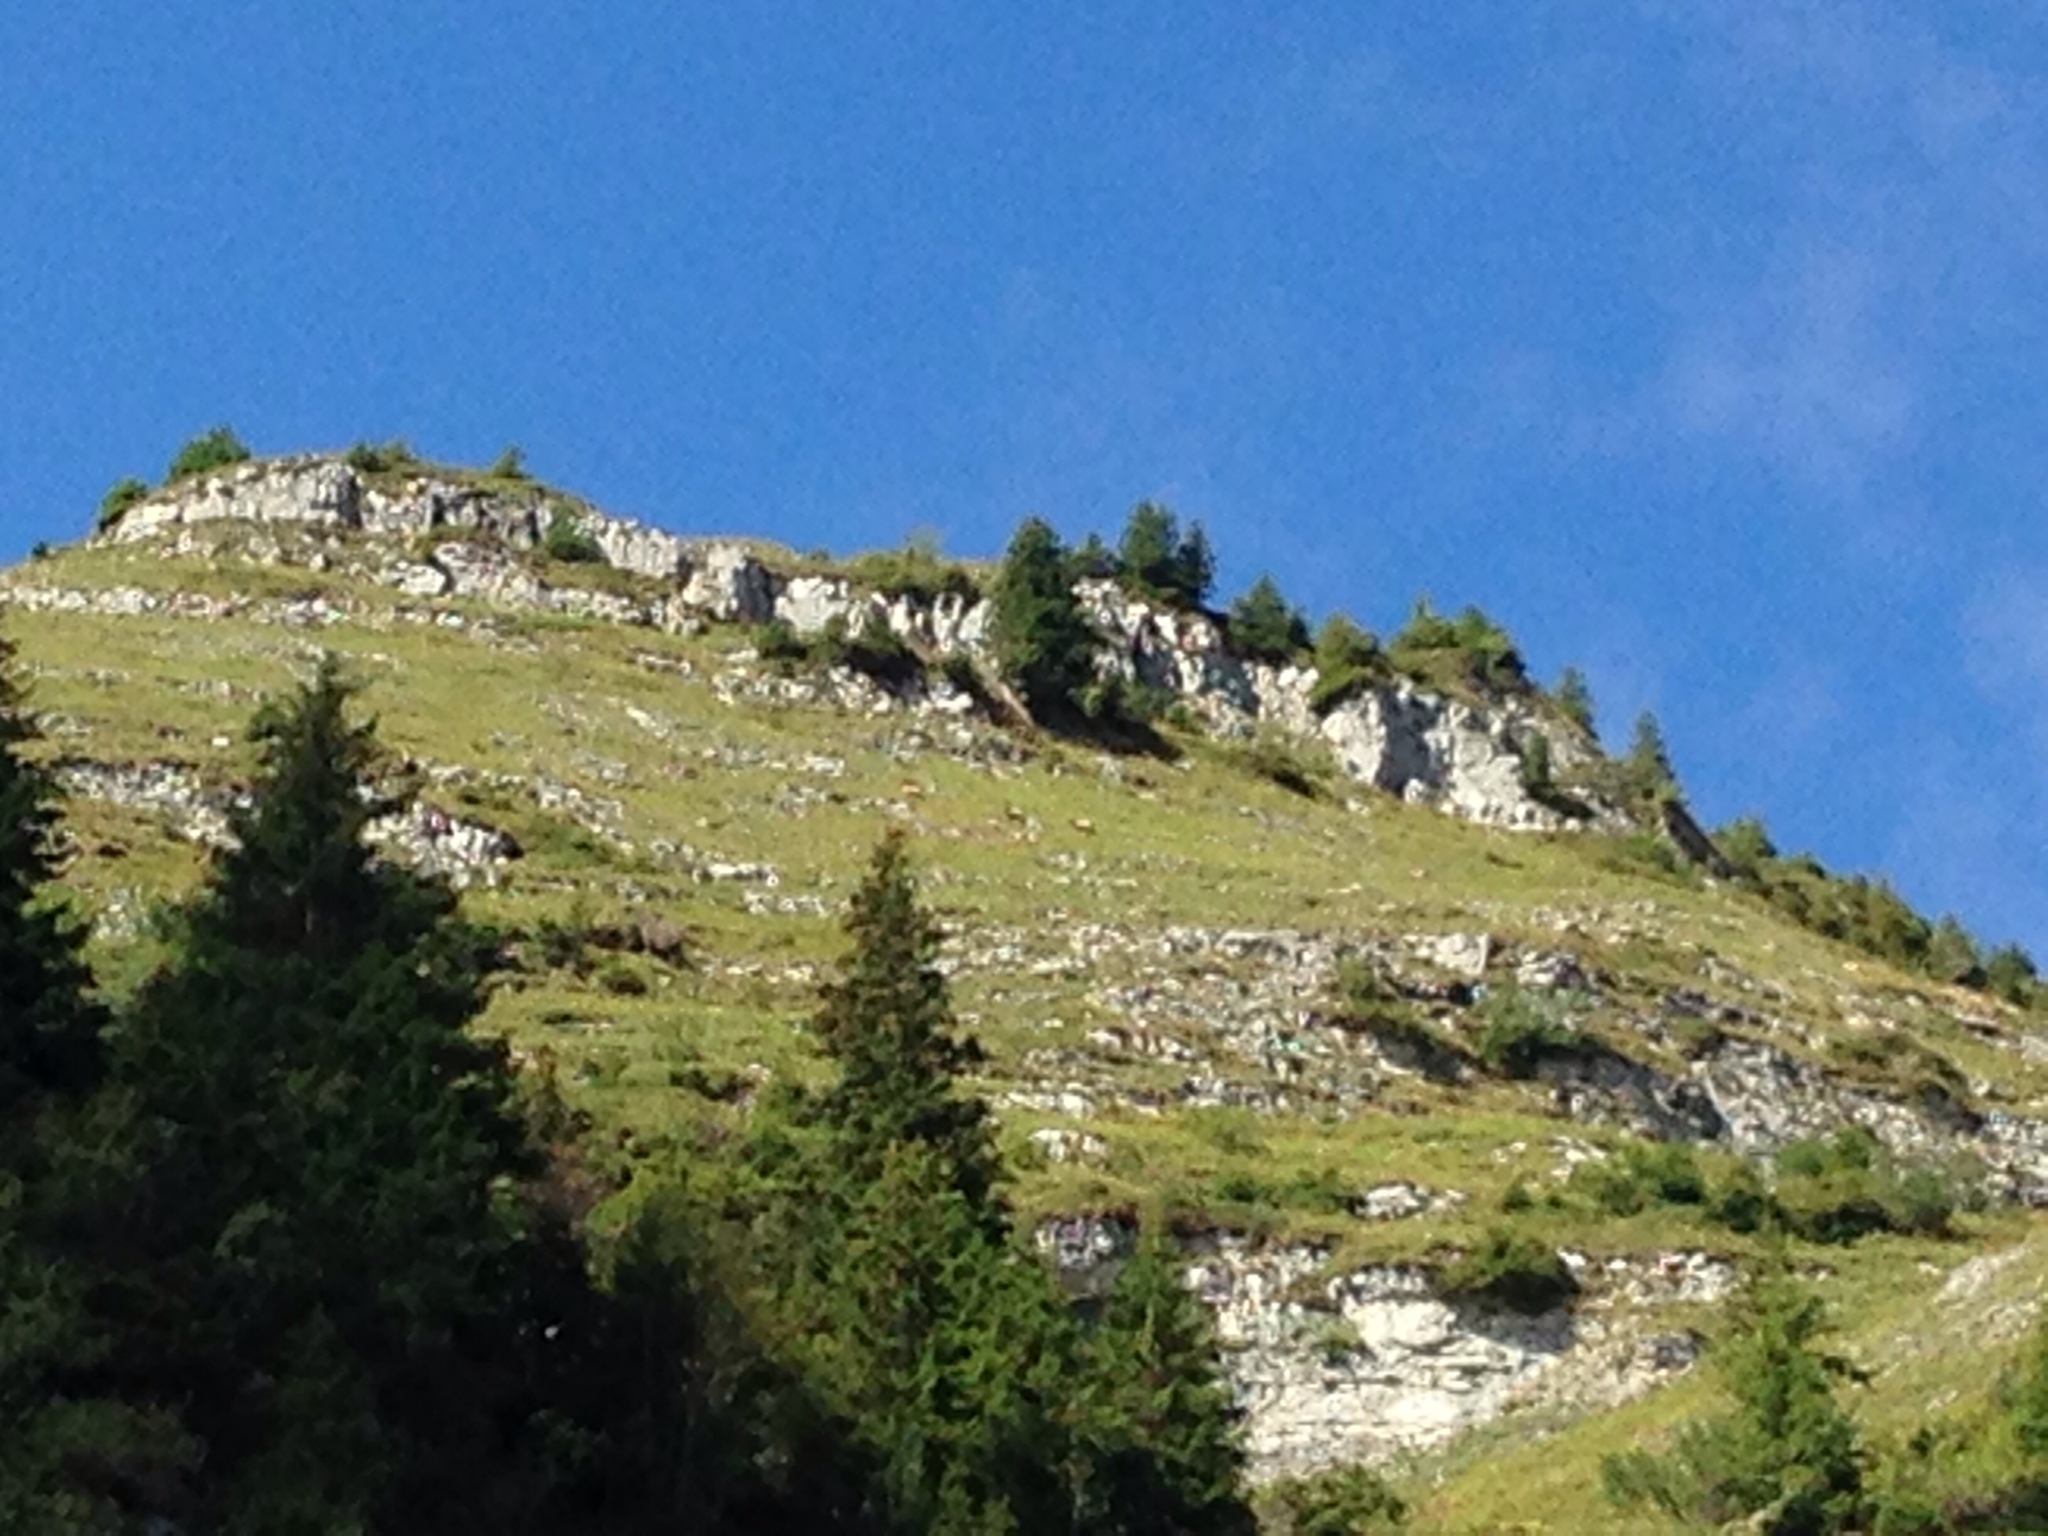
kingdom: Animalia
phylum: Chordata
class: Mammalia
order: Artiodactyla
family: Bovidae
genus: Rupicapra
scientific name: Rupicapra rupicapra
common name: Chamois
